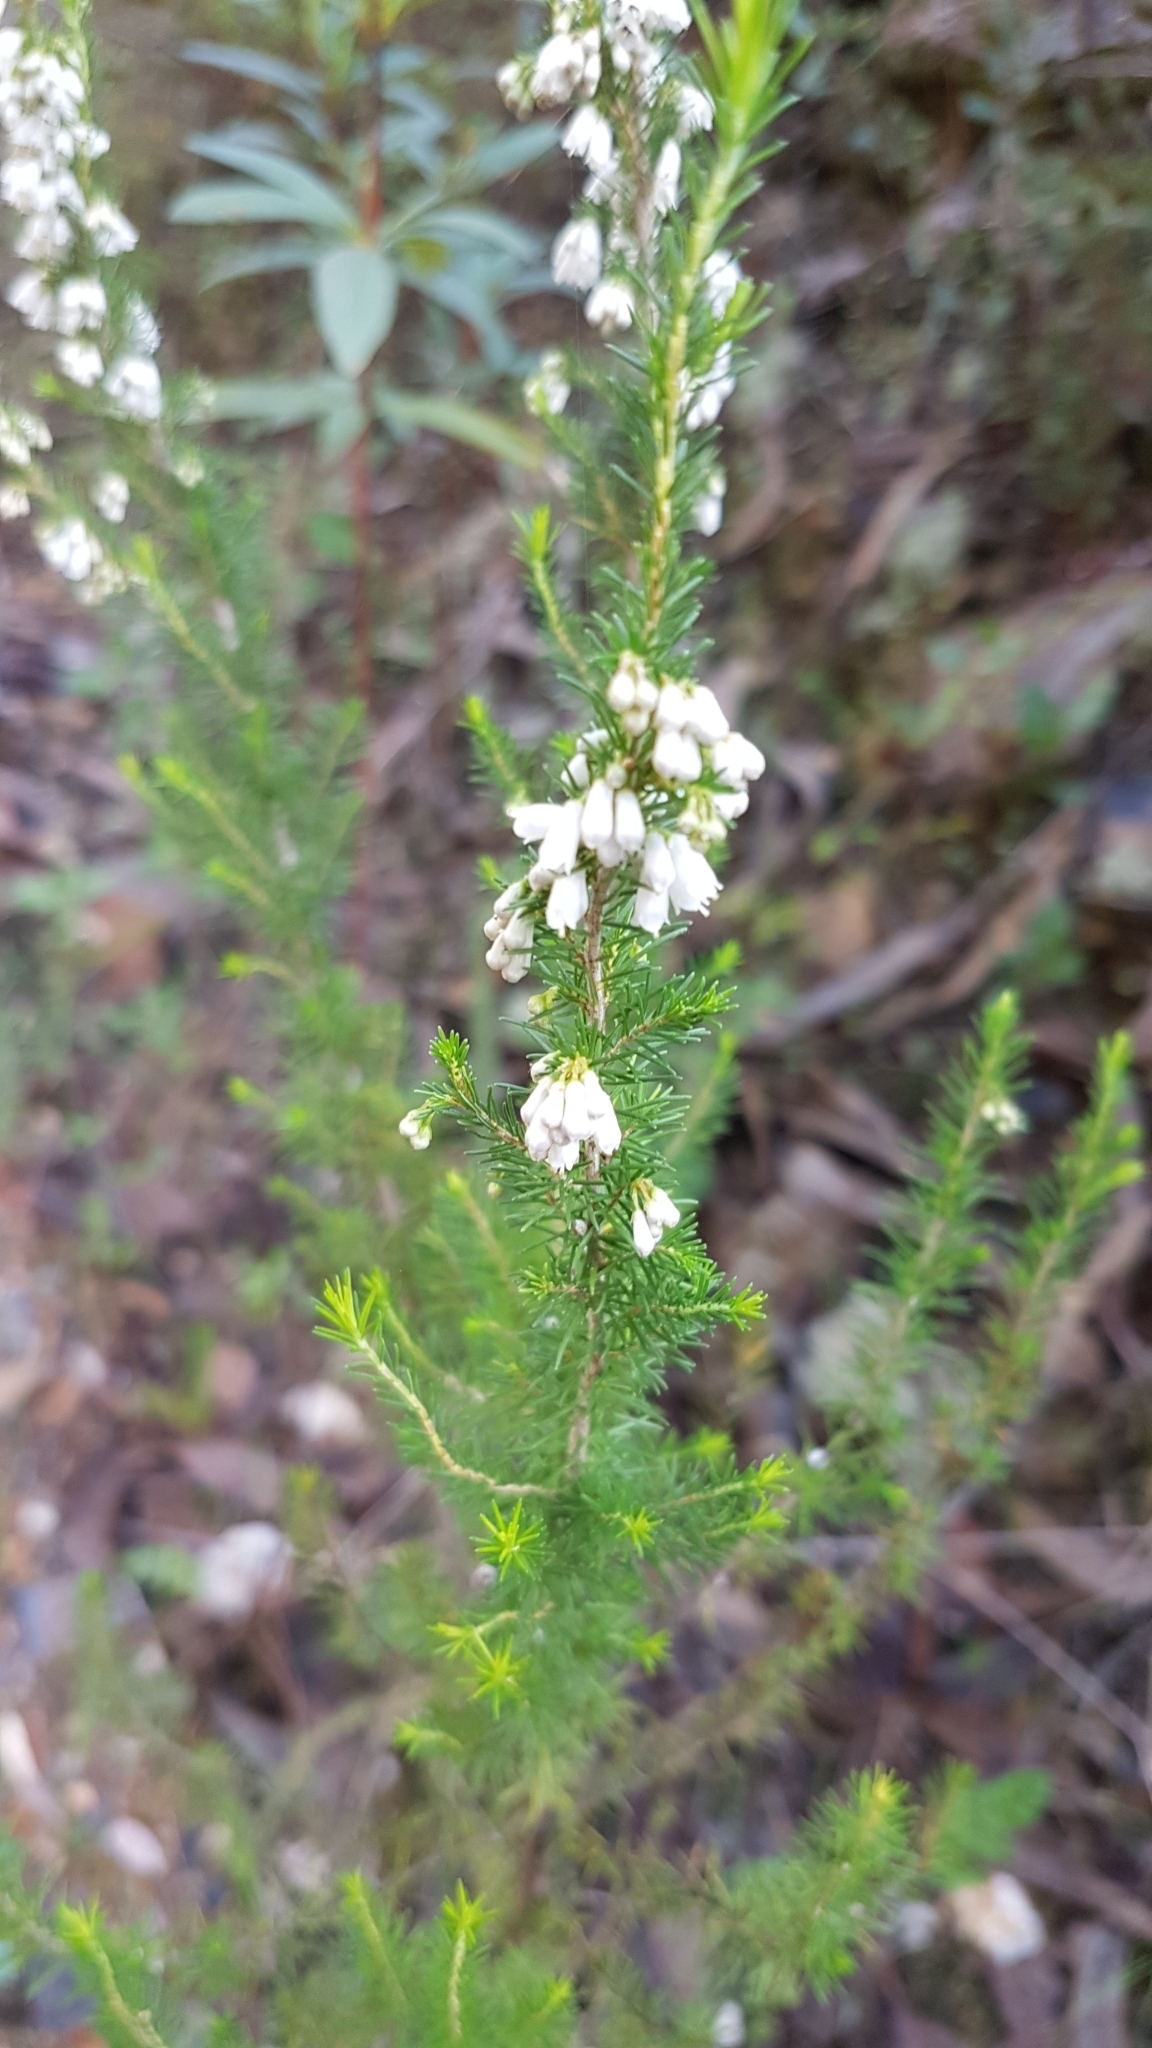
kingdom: Plantae
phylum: Tracheophyta
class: Magnoliopsida
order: Ericales
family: Ericaceae
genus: Erica
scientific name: Erica lusitanica
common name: Spanish heath
